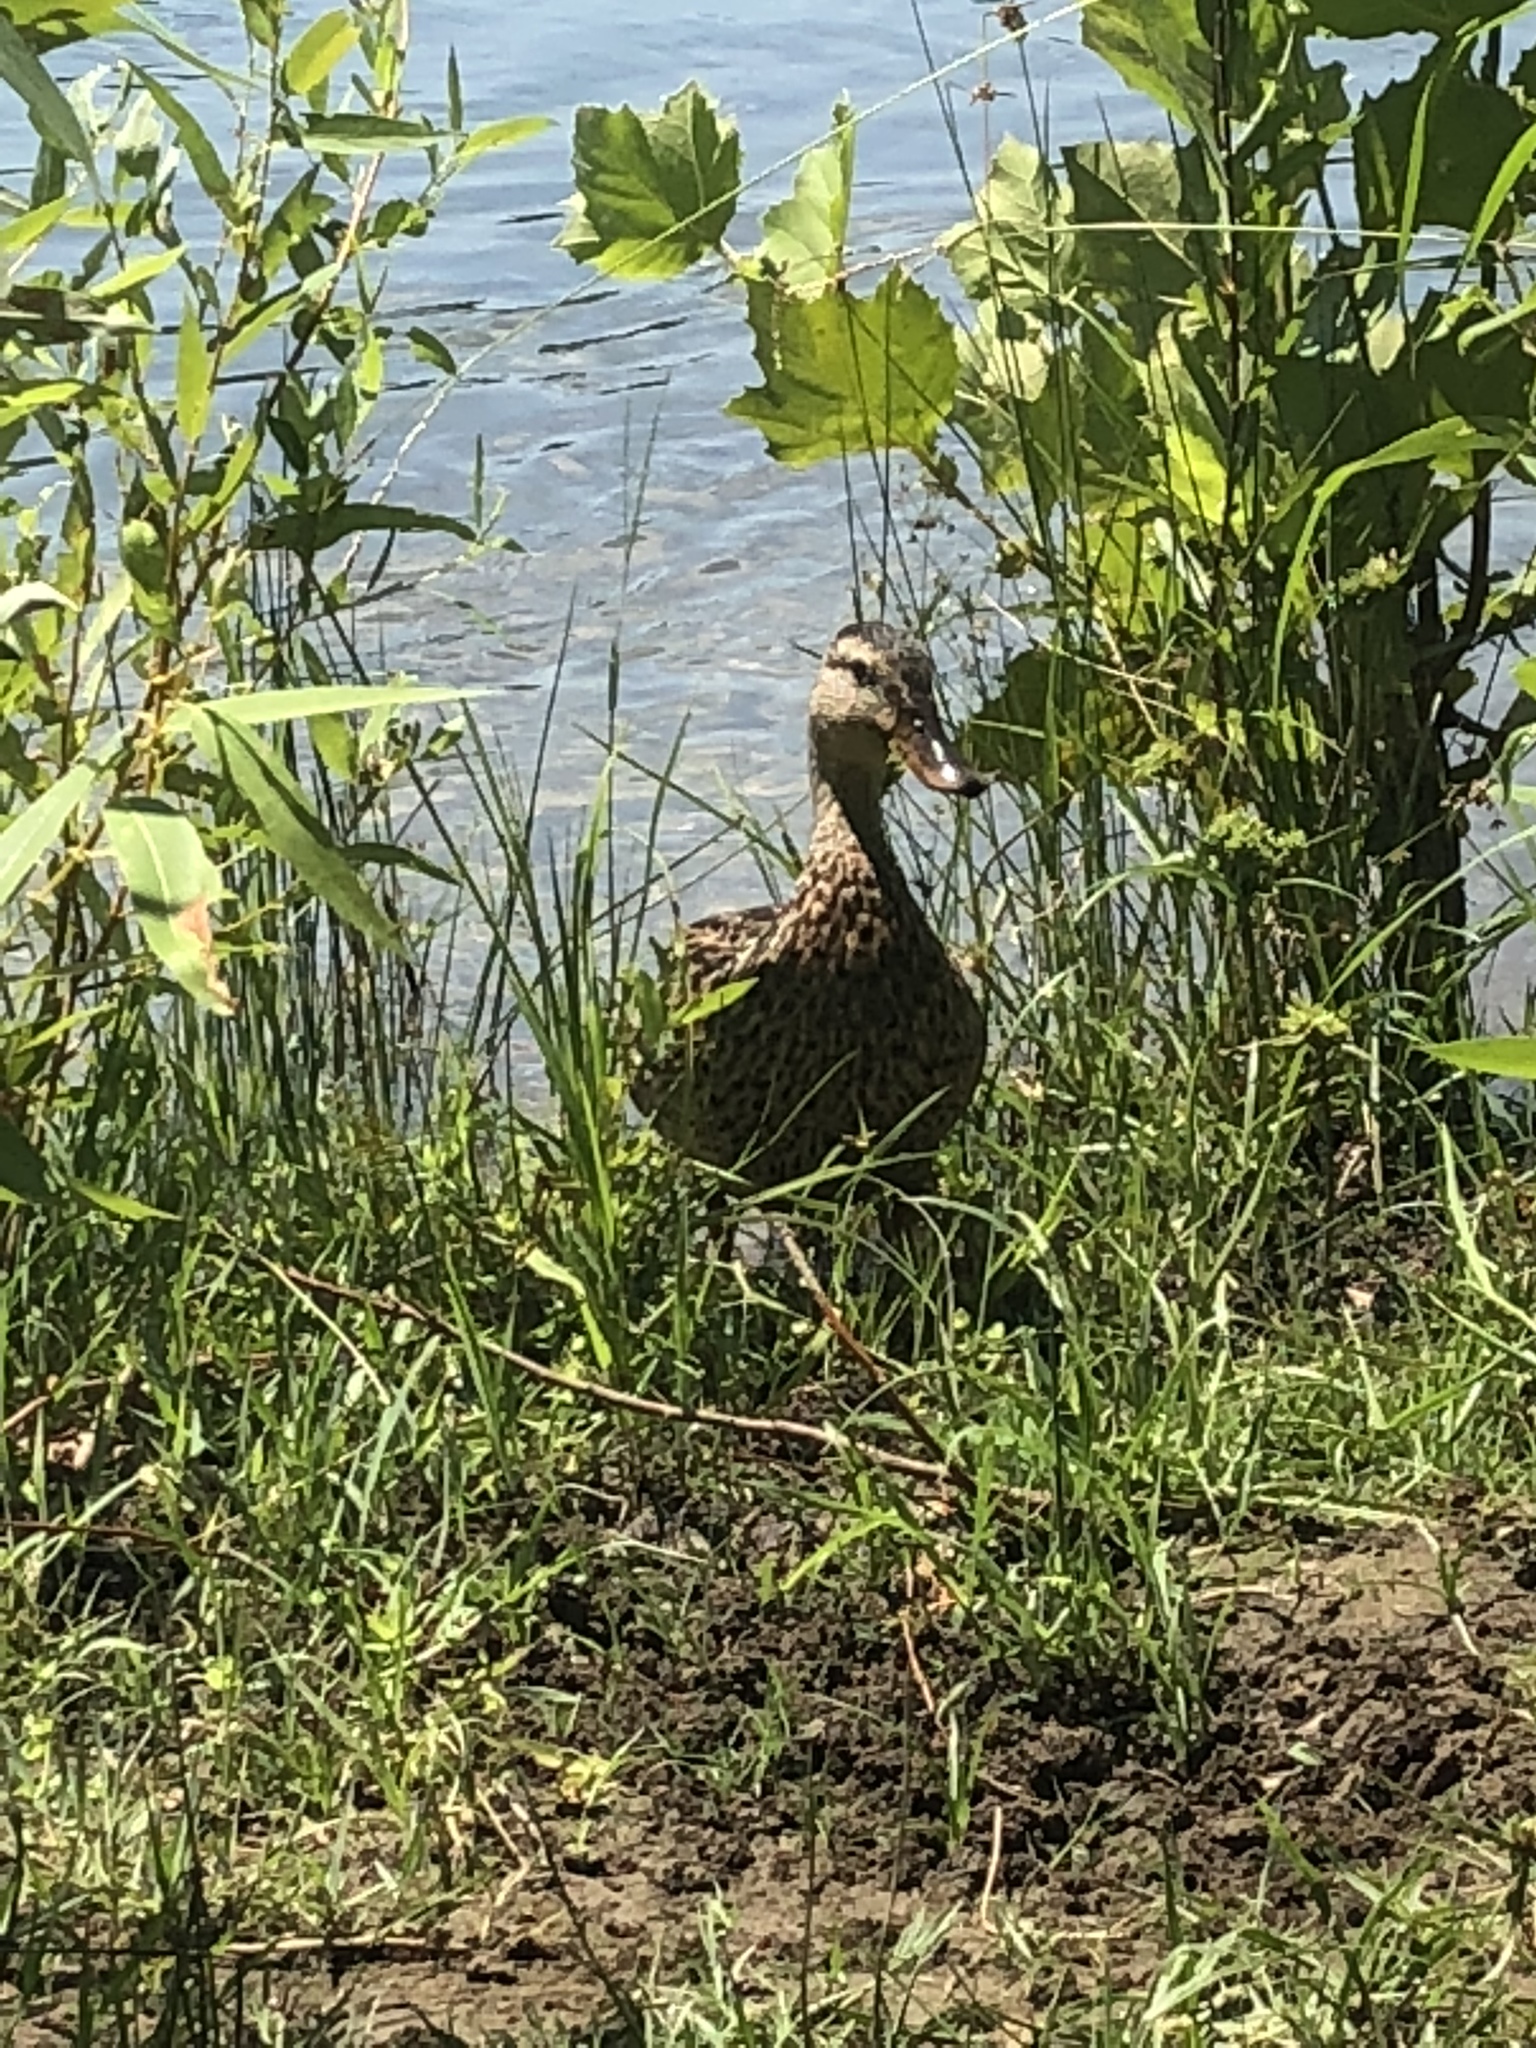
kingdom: Animalia
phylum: Chordata
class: Aves
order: Anseriformes
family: Anatidae
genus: Anas
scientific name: Anas platyrhynchos
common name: Mallard
